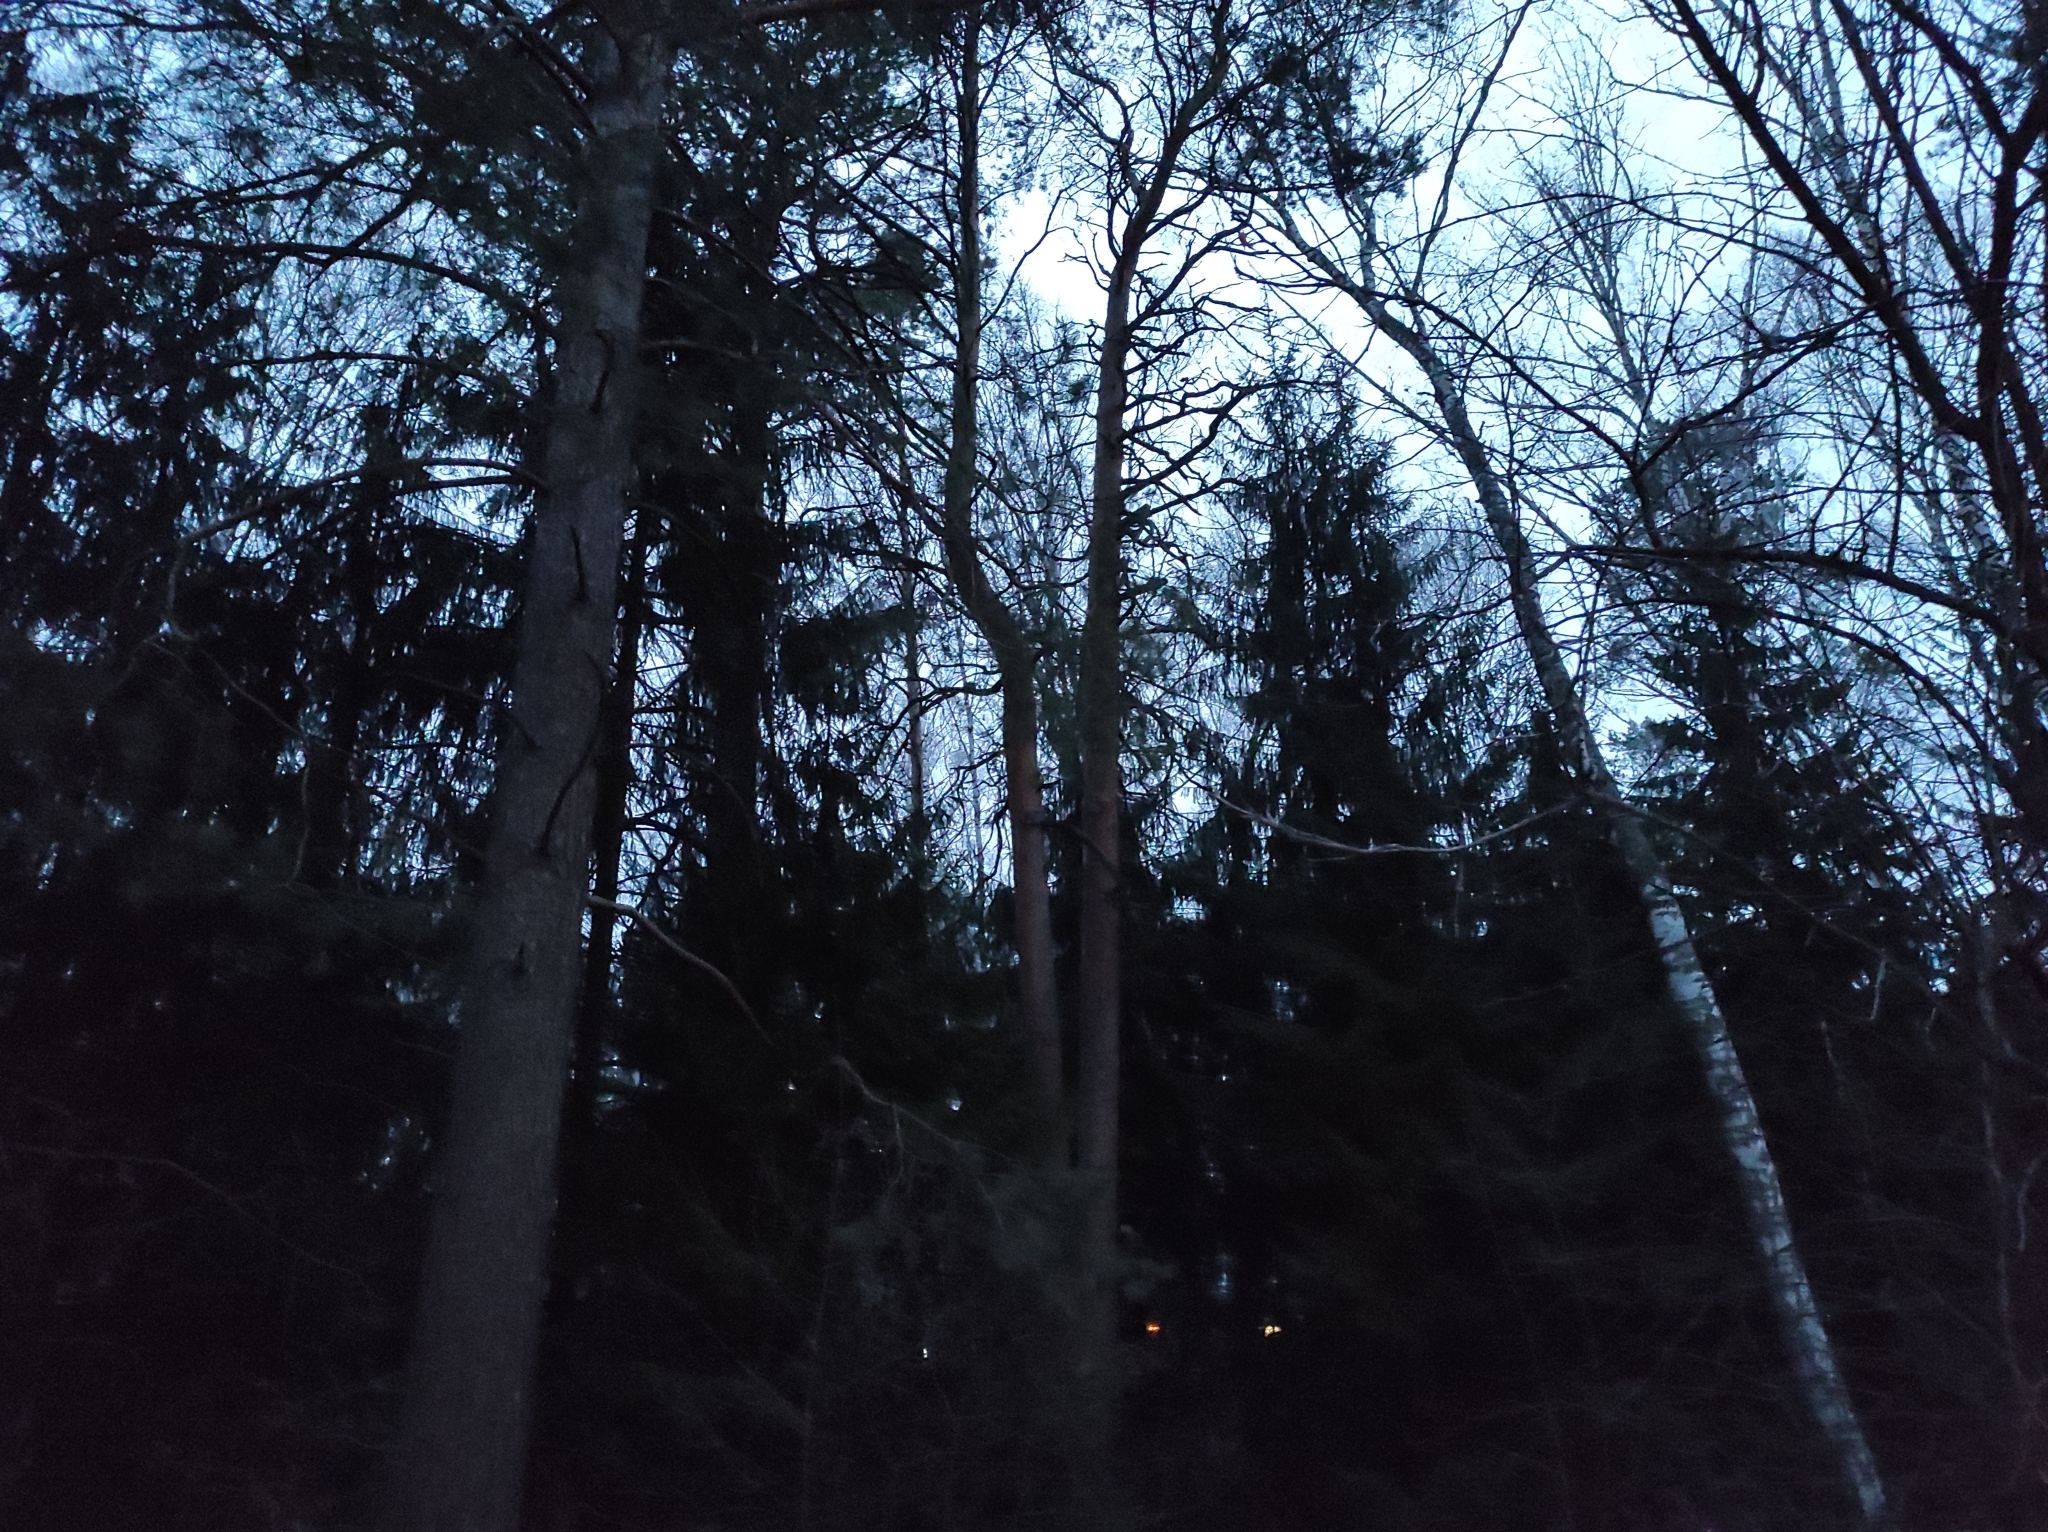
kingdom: Animalia
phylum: Chordata
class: Aves
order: Passeriformes
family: Turdidae
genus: Turdus
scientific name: Turdus philomelos
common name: Song thrush
